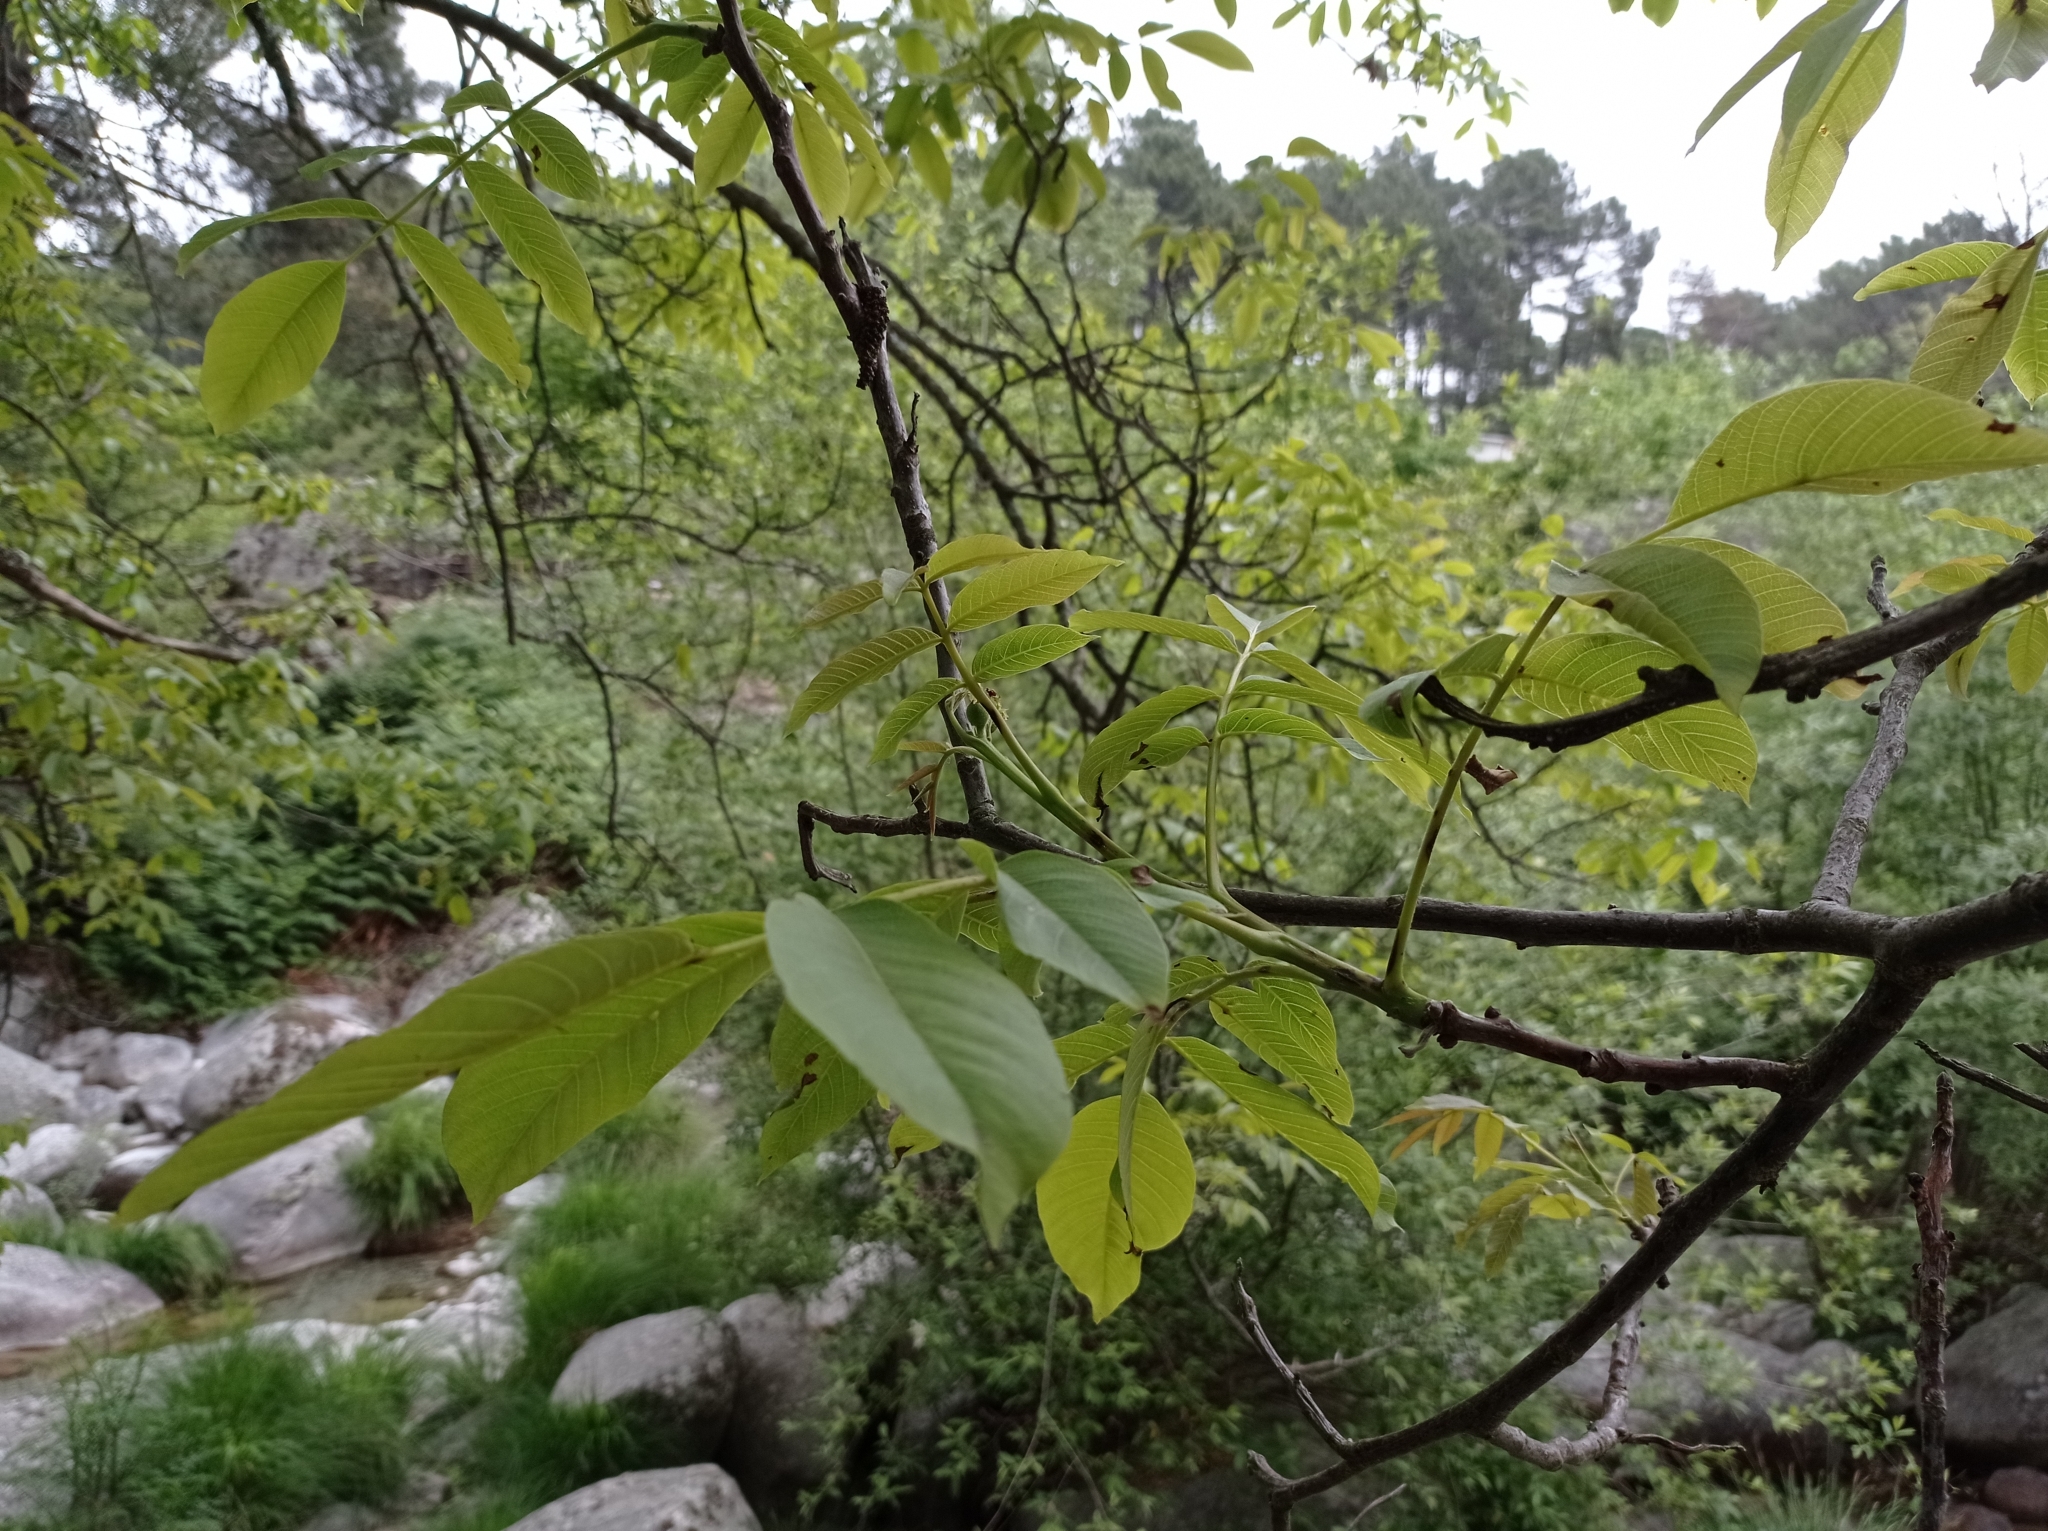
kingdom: Plantae
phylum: Tracheophyta
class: Magnoliopsida
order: Fagales
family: Juglandaceae
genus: Juglans
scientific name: Juglans regia
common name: Walnut
